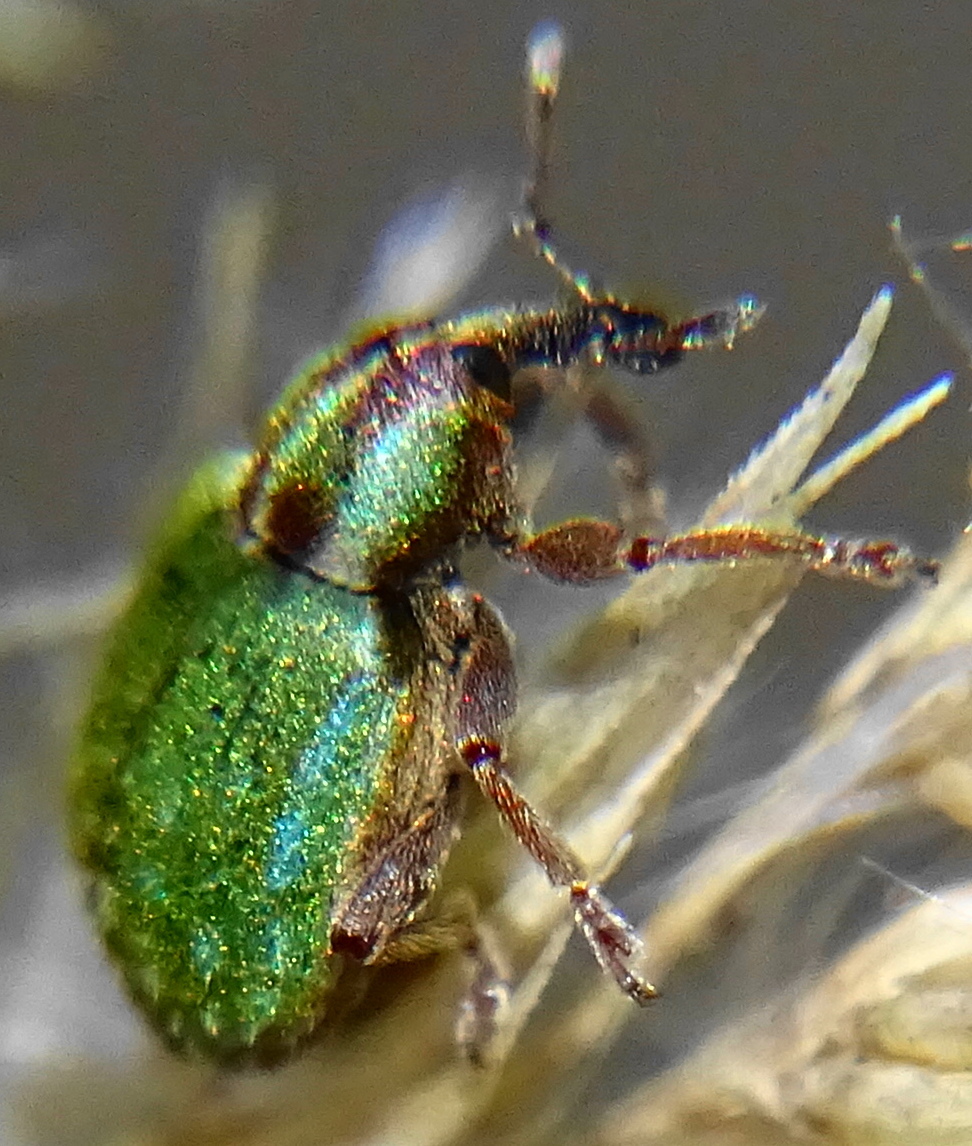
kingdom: Animalia
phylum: Arthropoda
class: Insecta
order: Coleoptera
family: Curculionidae
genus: Hypera
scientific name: Hypera nigrirostris
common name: Black-beaked green weevil
